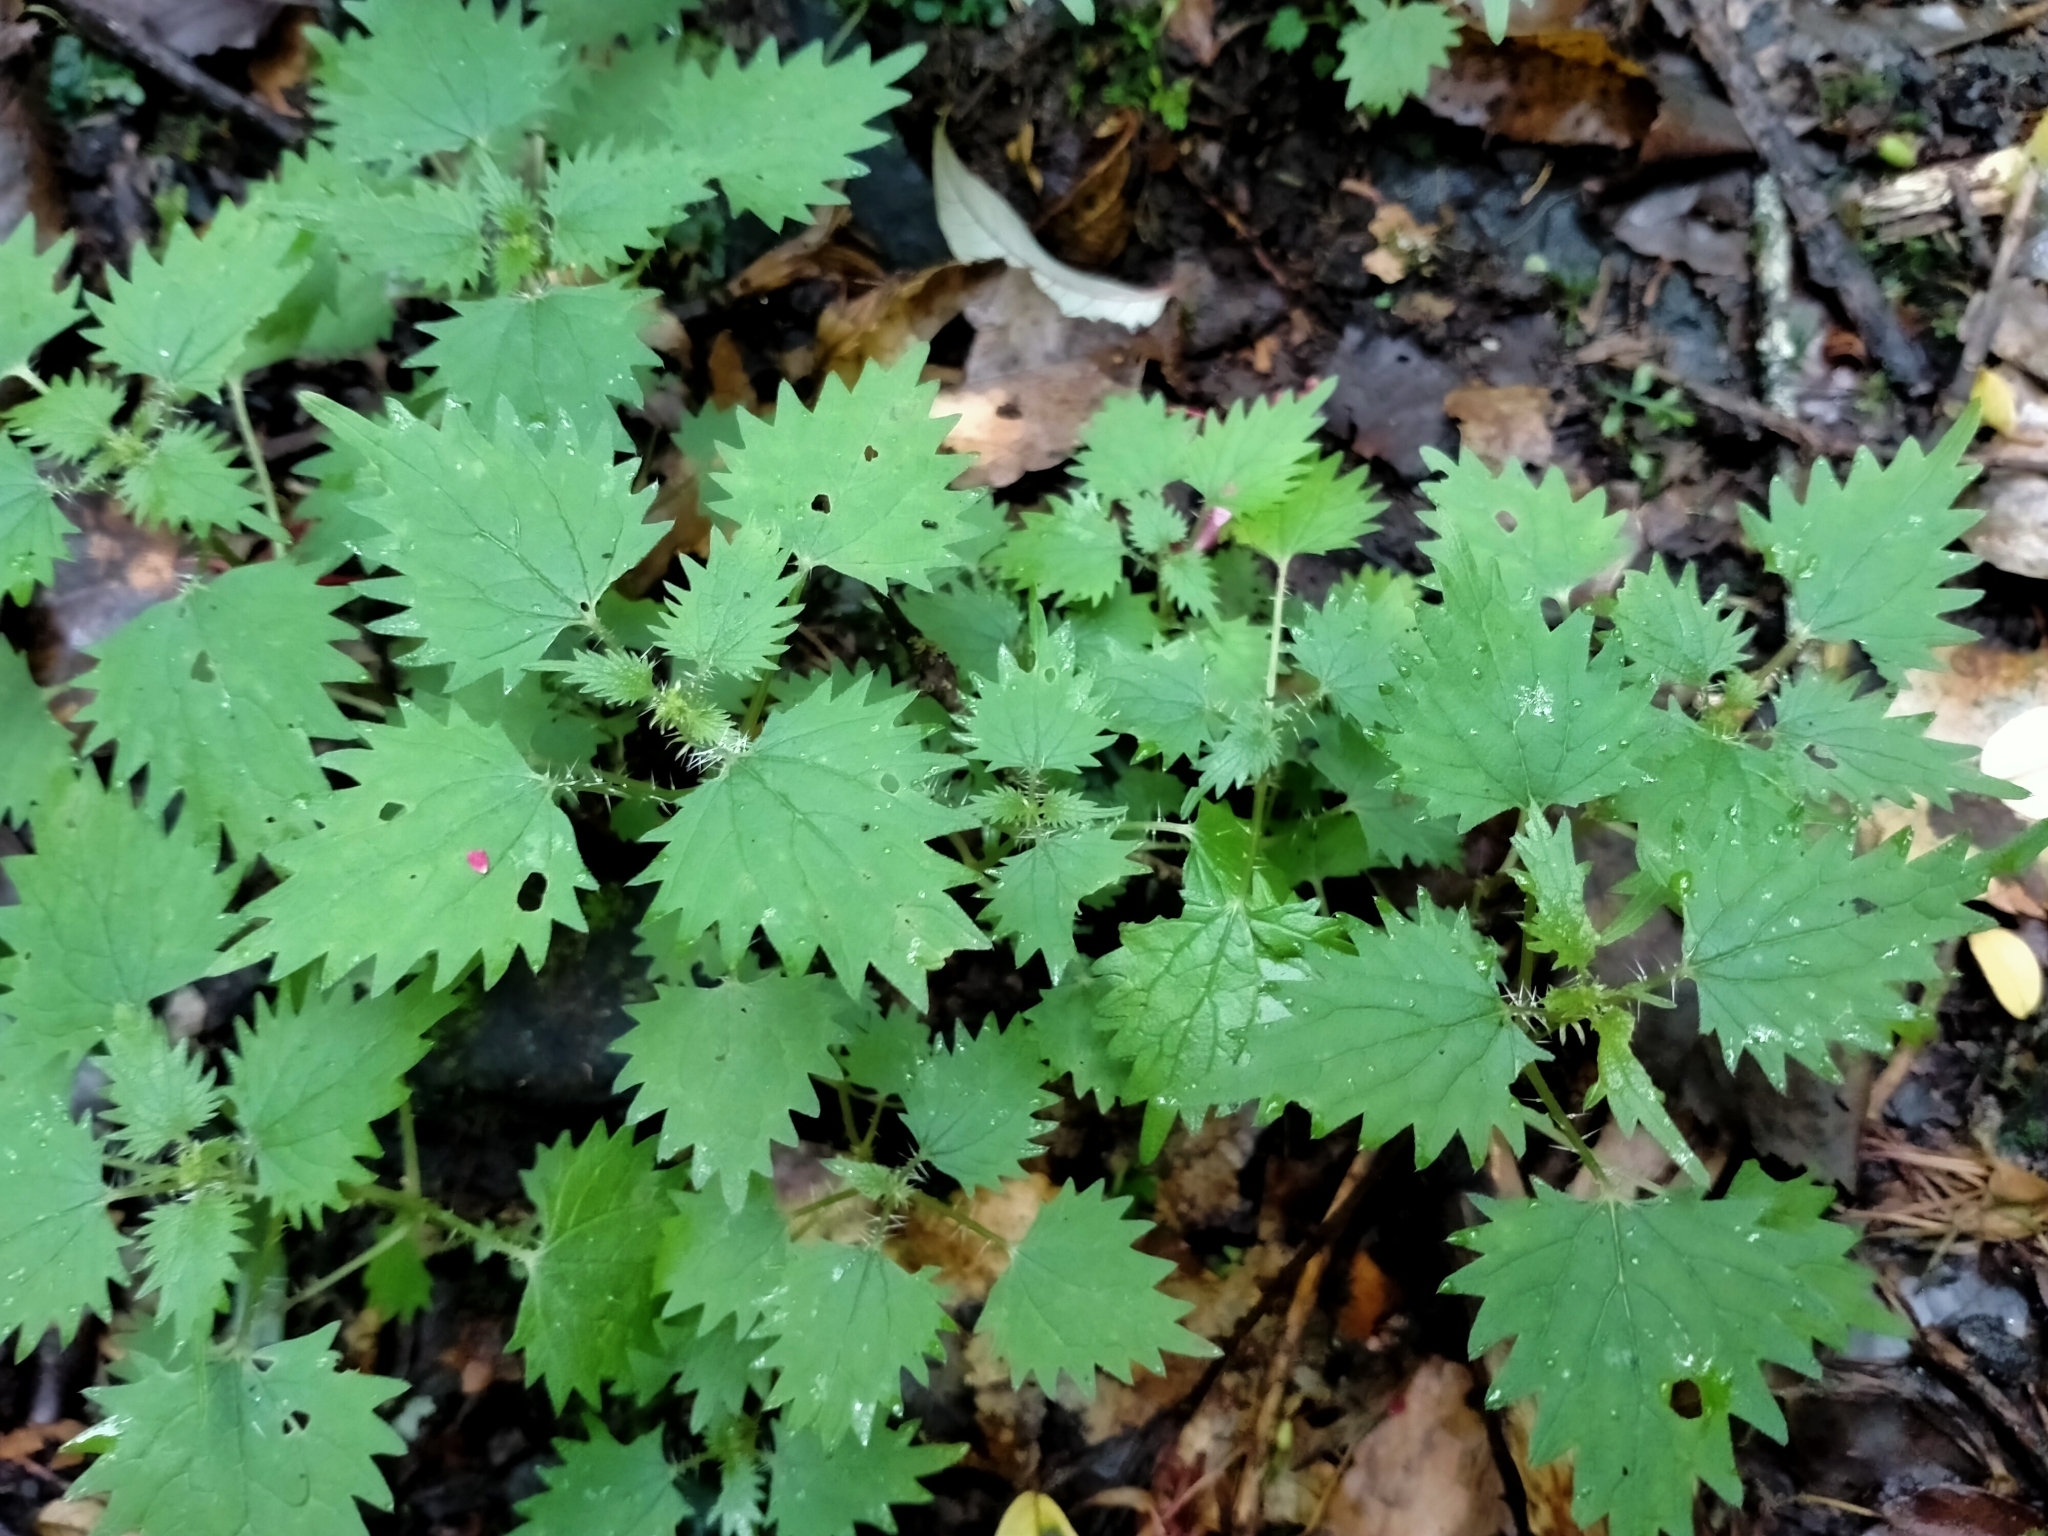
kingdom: Plantae
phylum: Tracheophyta
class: Magnoliopsida
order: Rosales
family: Urticaceae
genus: Urtica
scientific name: Urtica sykesii
